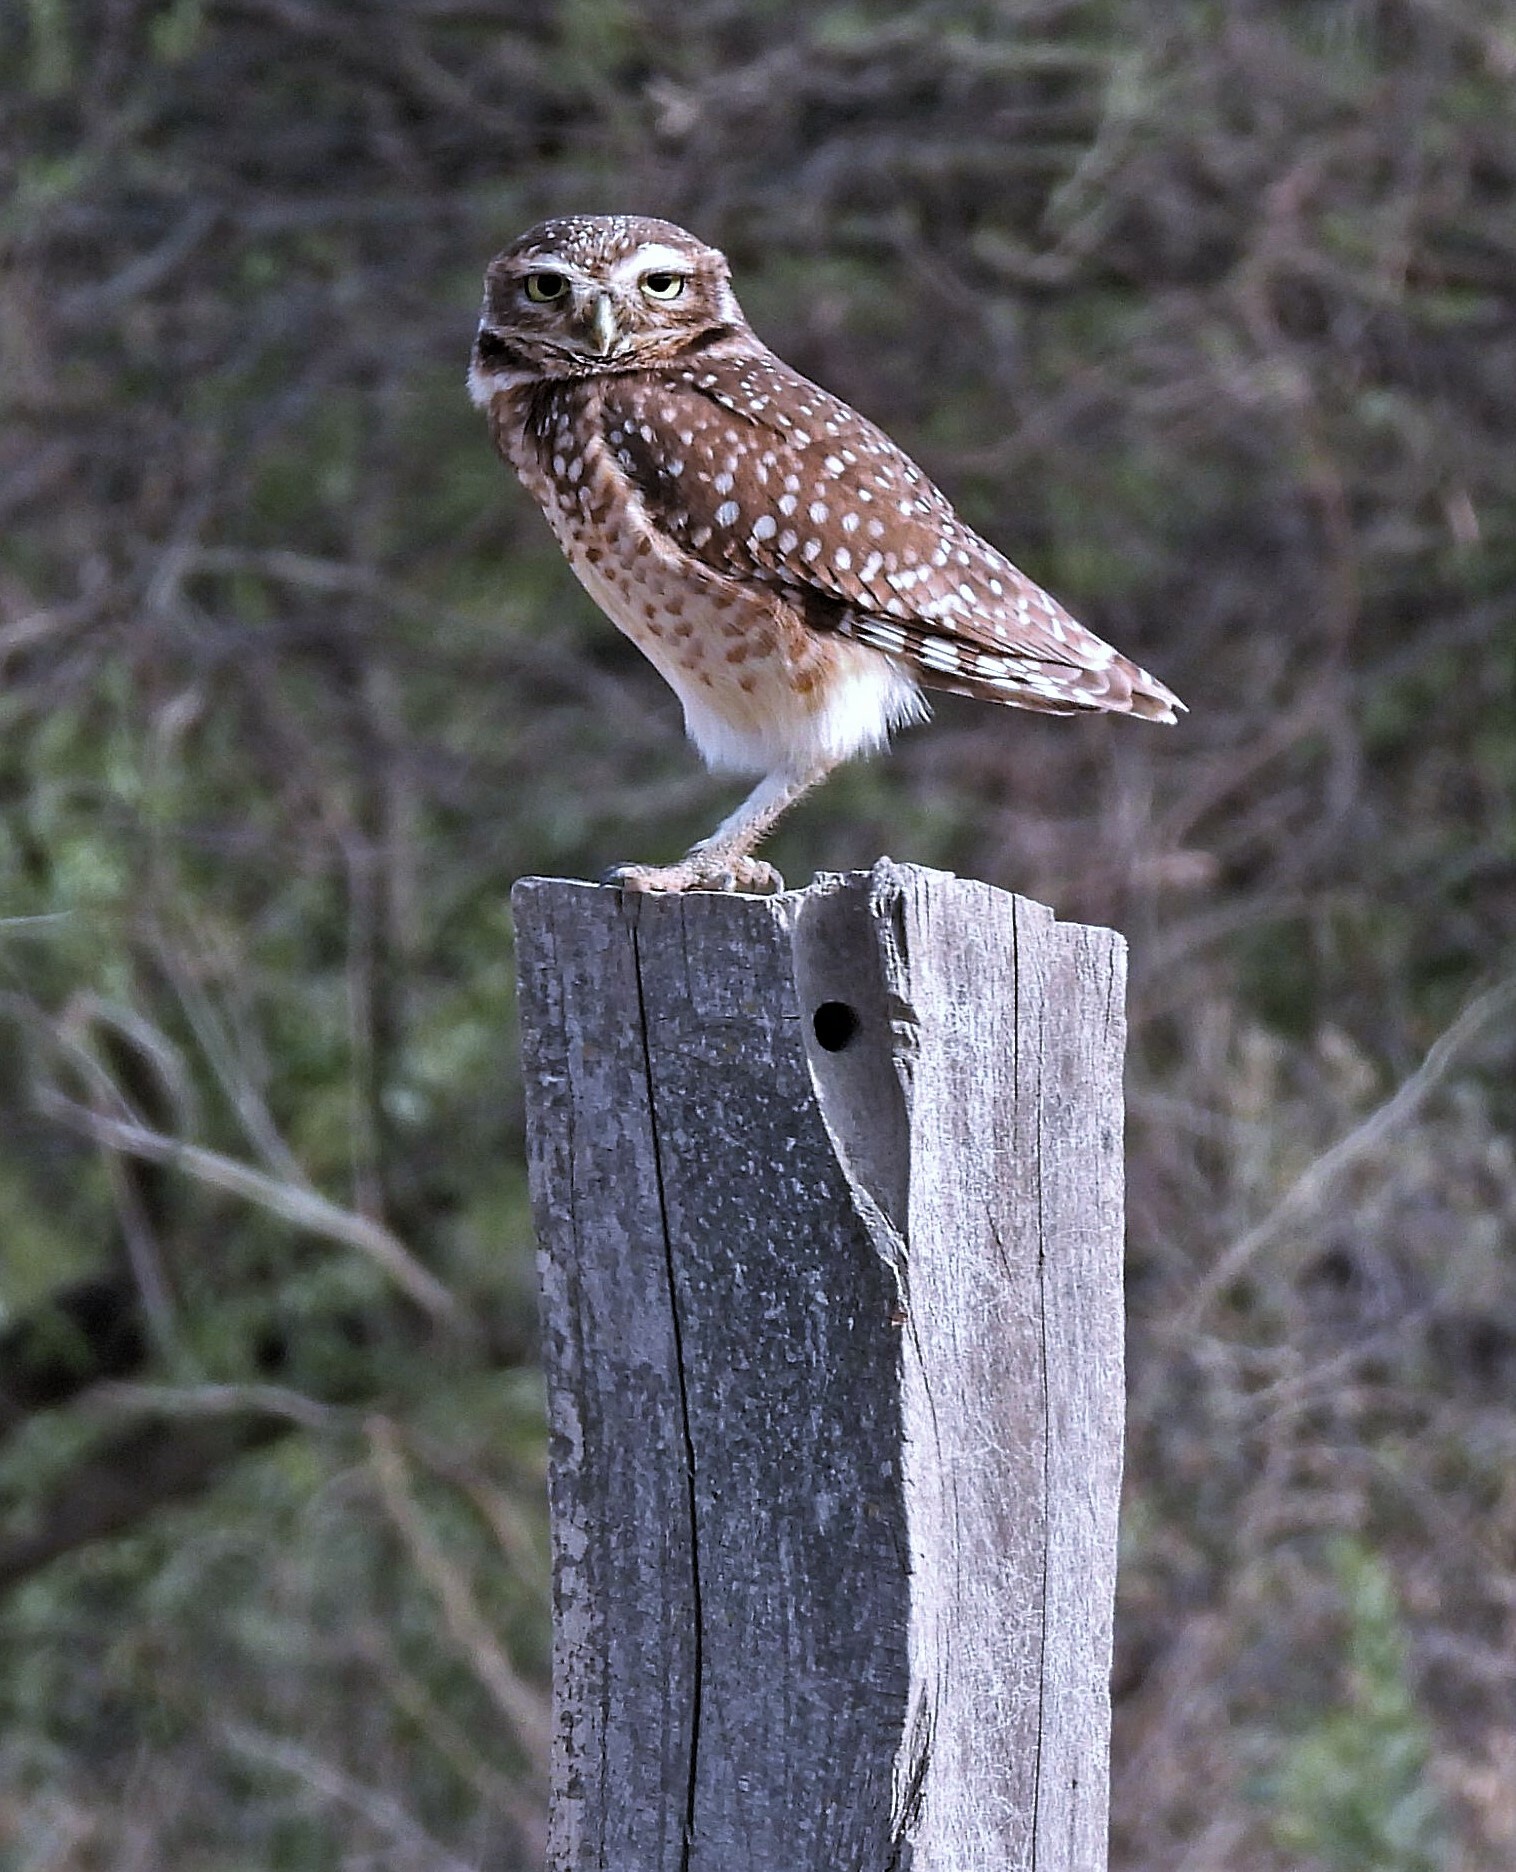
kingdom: Animalia
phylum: Chordata
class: Aves
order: Strigiformes
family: Strigidae
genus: Athene
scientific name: Athene cunicularia
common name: Burrowing owl
